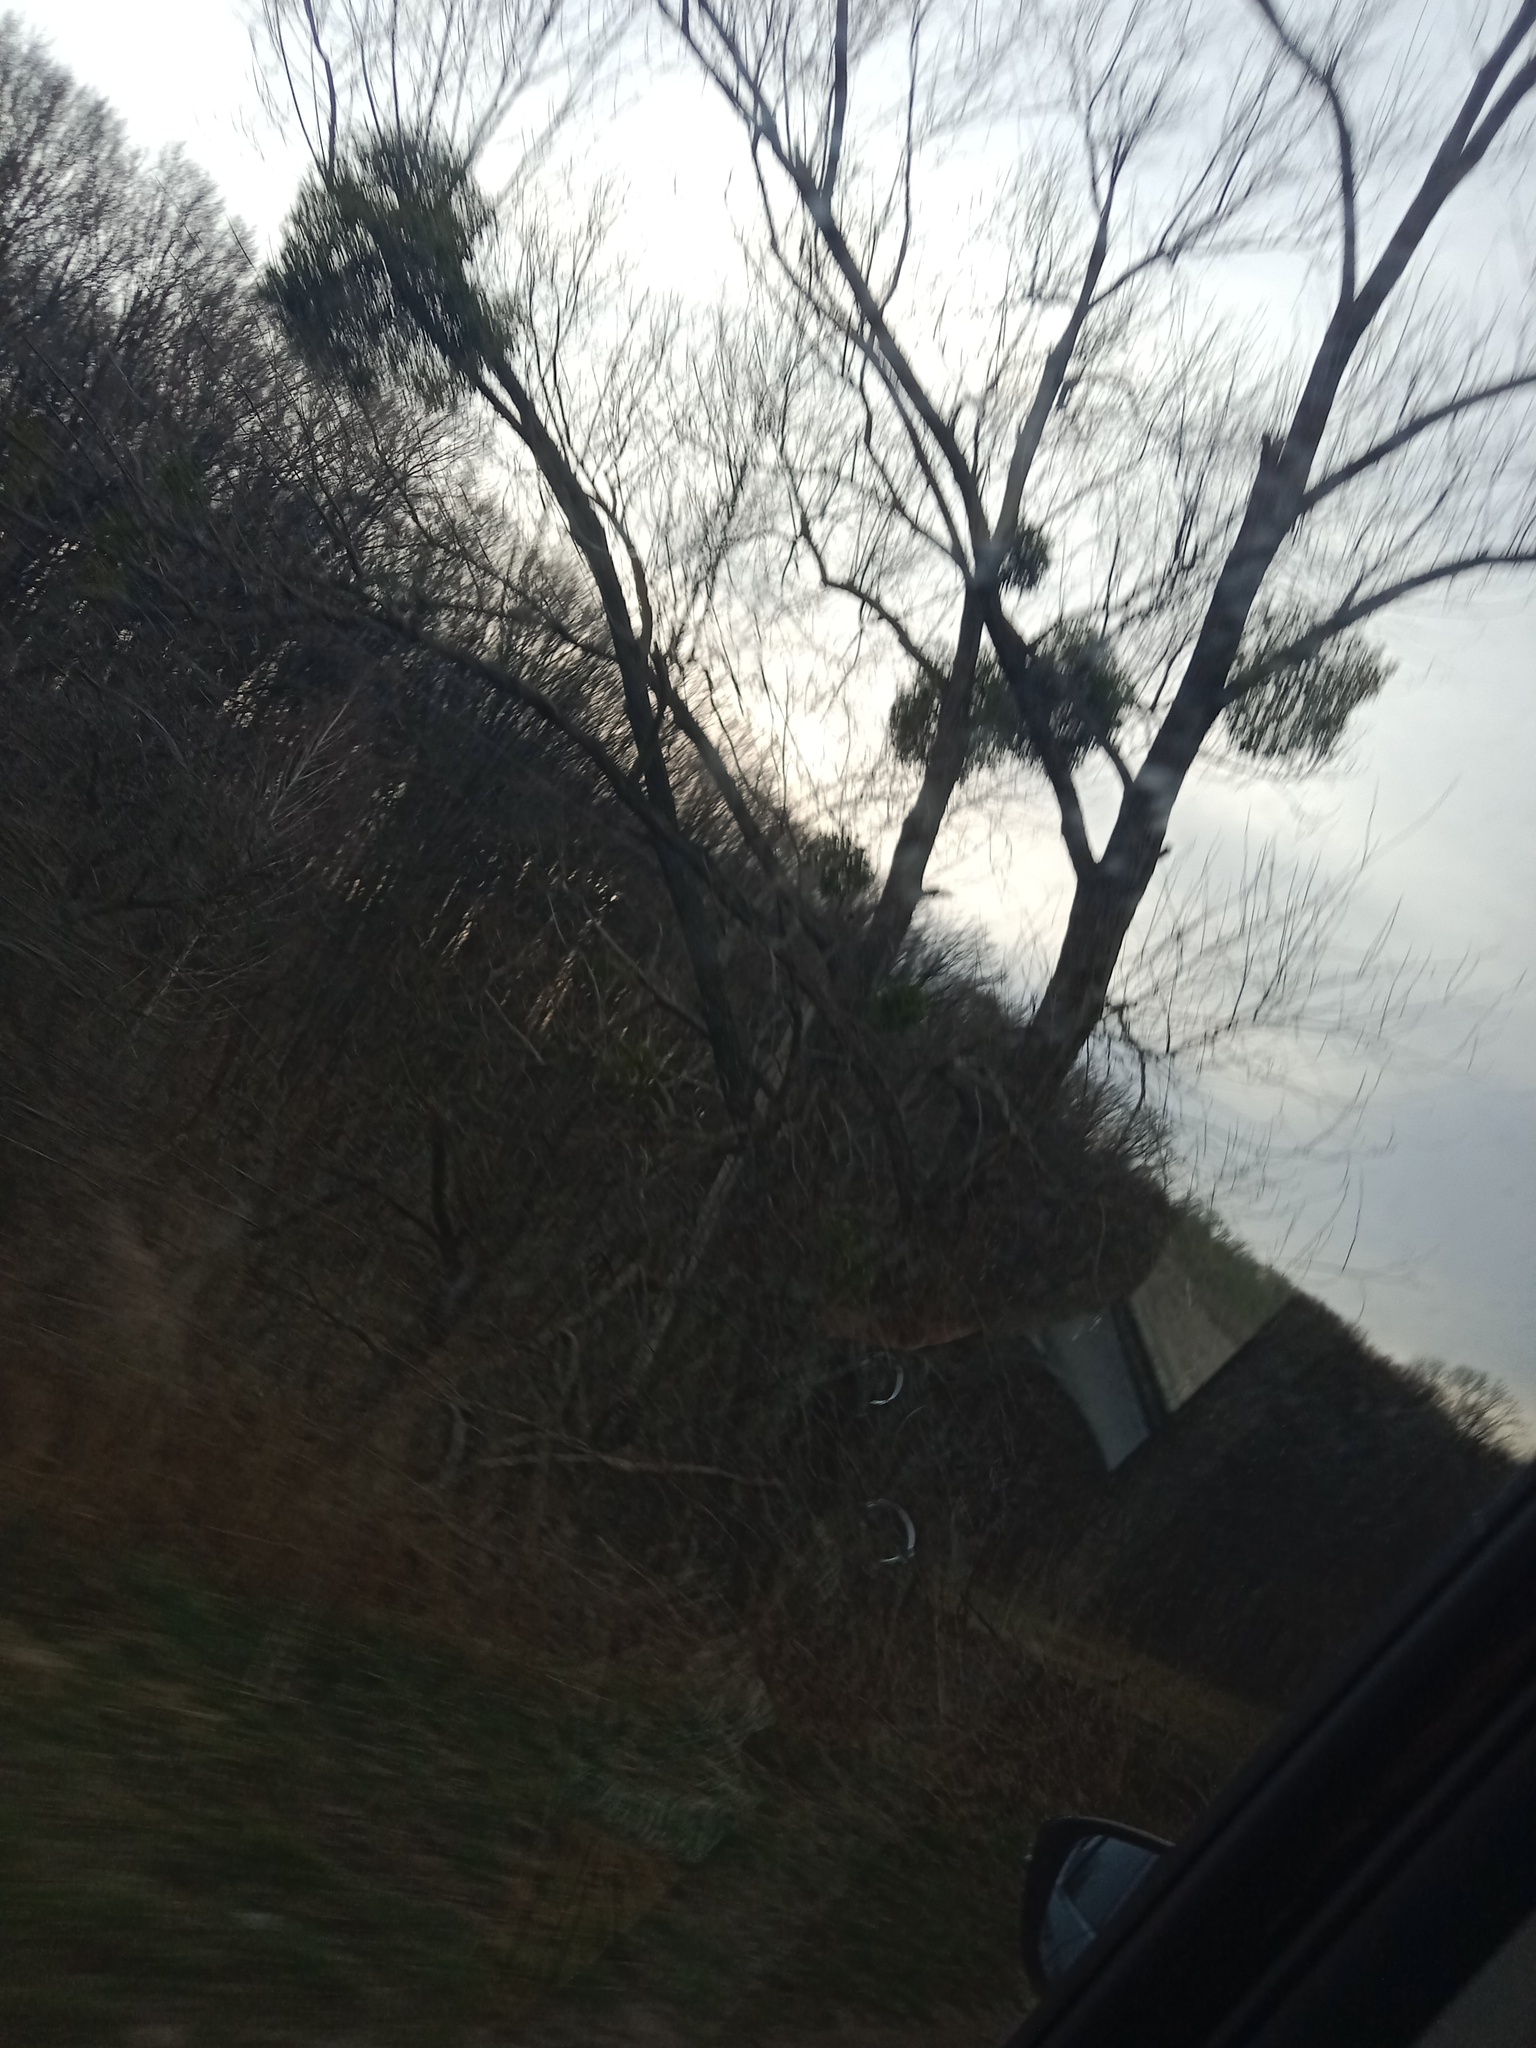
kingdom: Plantae
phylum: Tracheophyta
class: Magnoliopsida
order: Santalales
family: Viscaceae
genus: Viscum
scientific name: Viscum album
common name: Mistletoe
